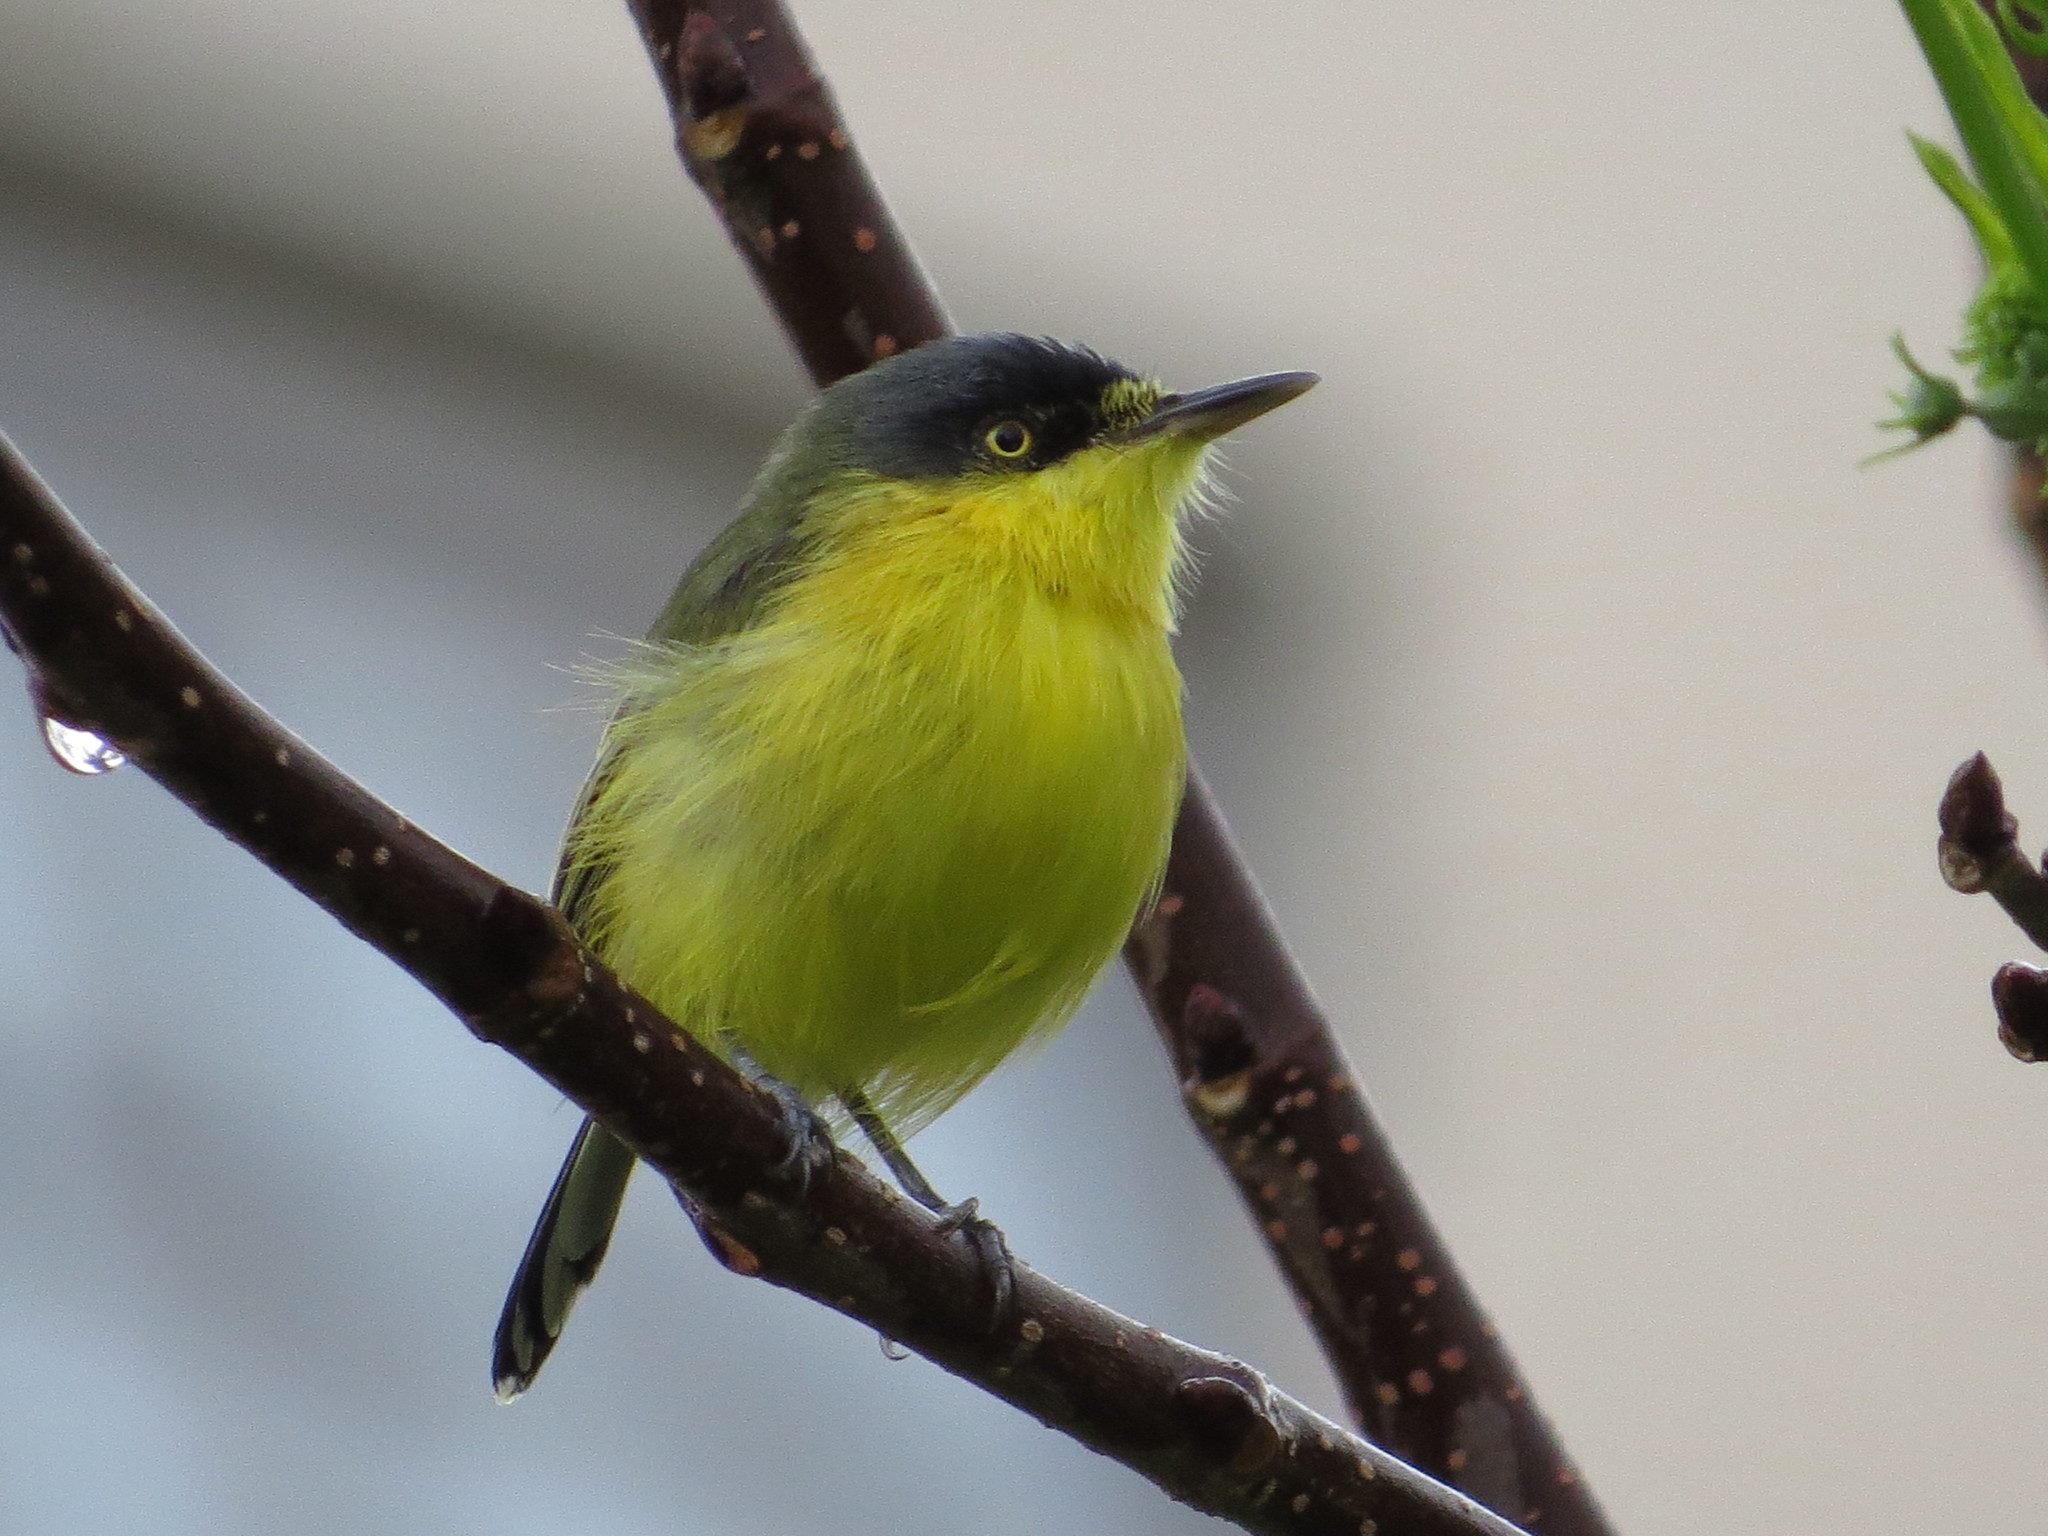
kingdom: Animalia
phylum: Chordata
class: Aves
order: Passeriformes
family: Tyrannidae
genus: Todirostrum
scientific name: Todirostrum cinereum
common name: Common tody-flycatcher
